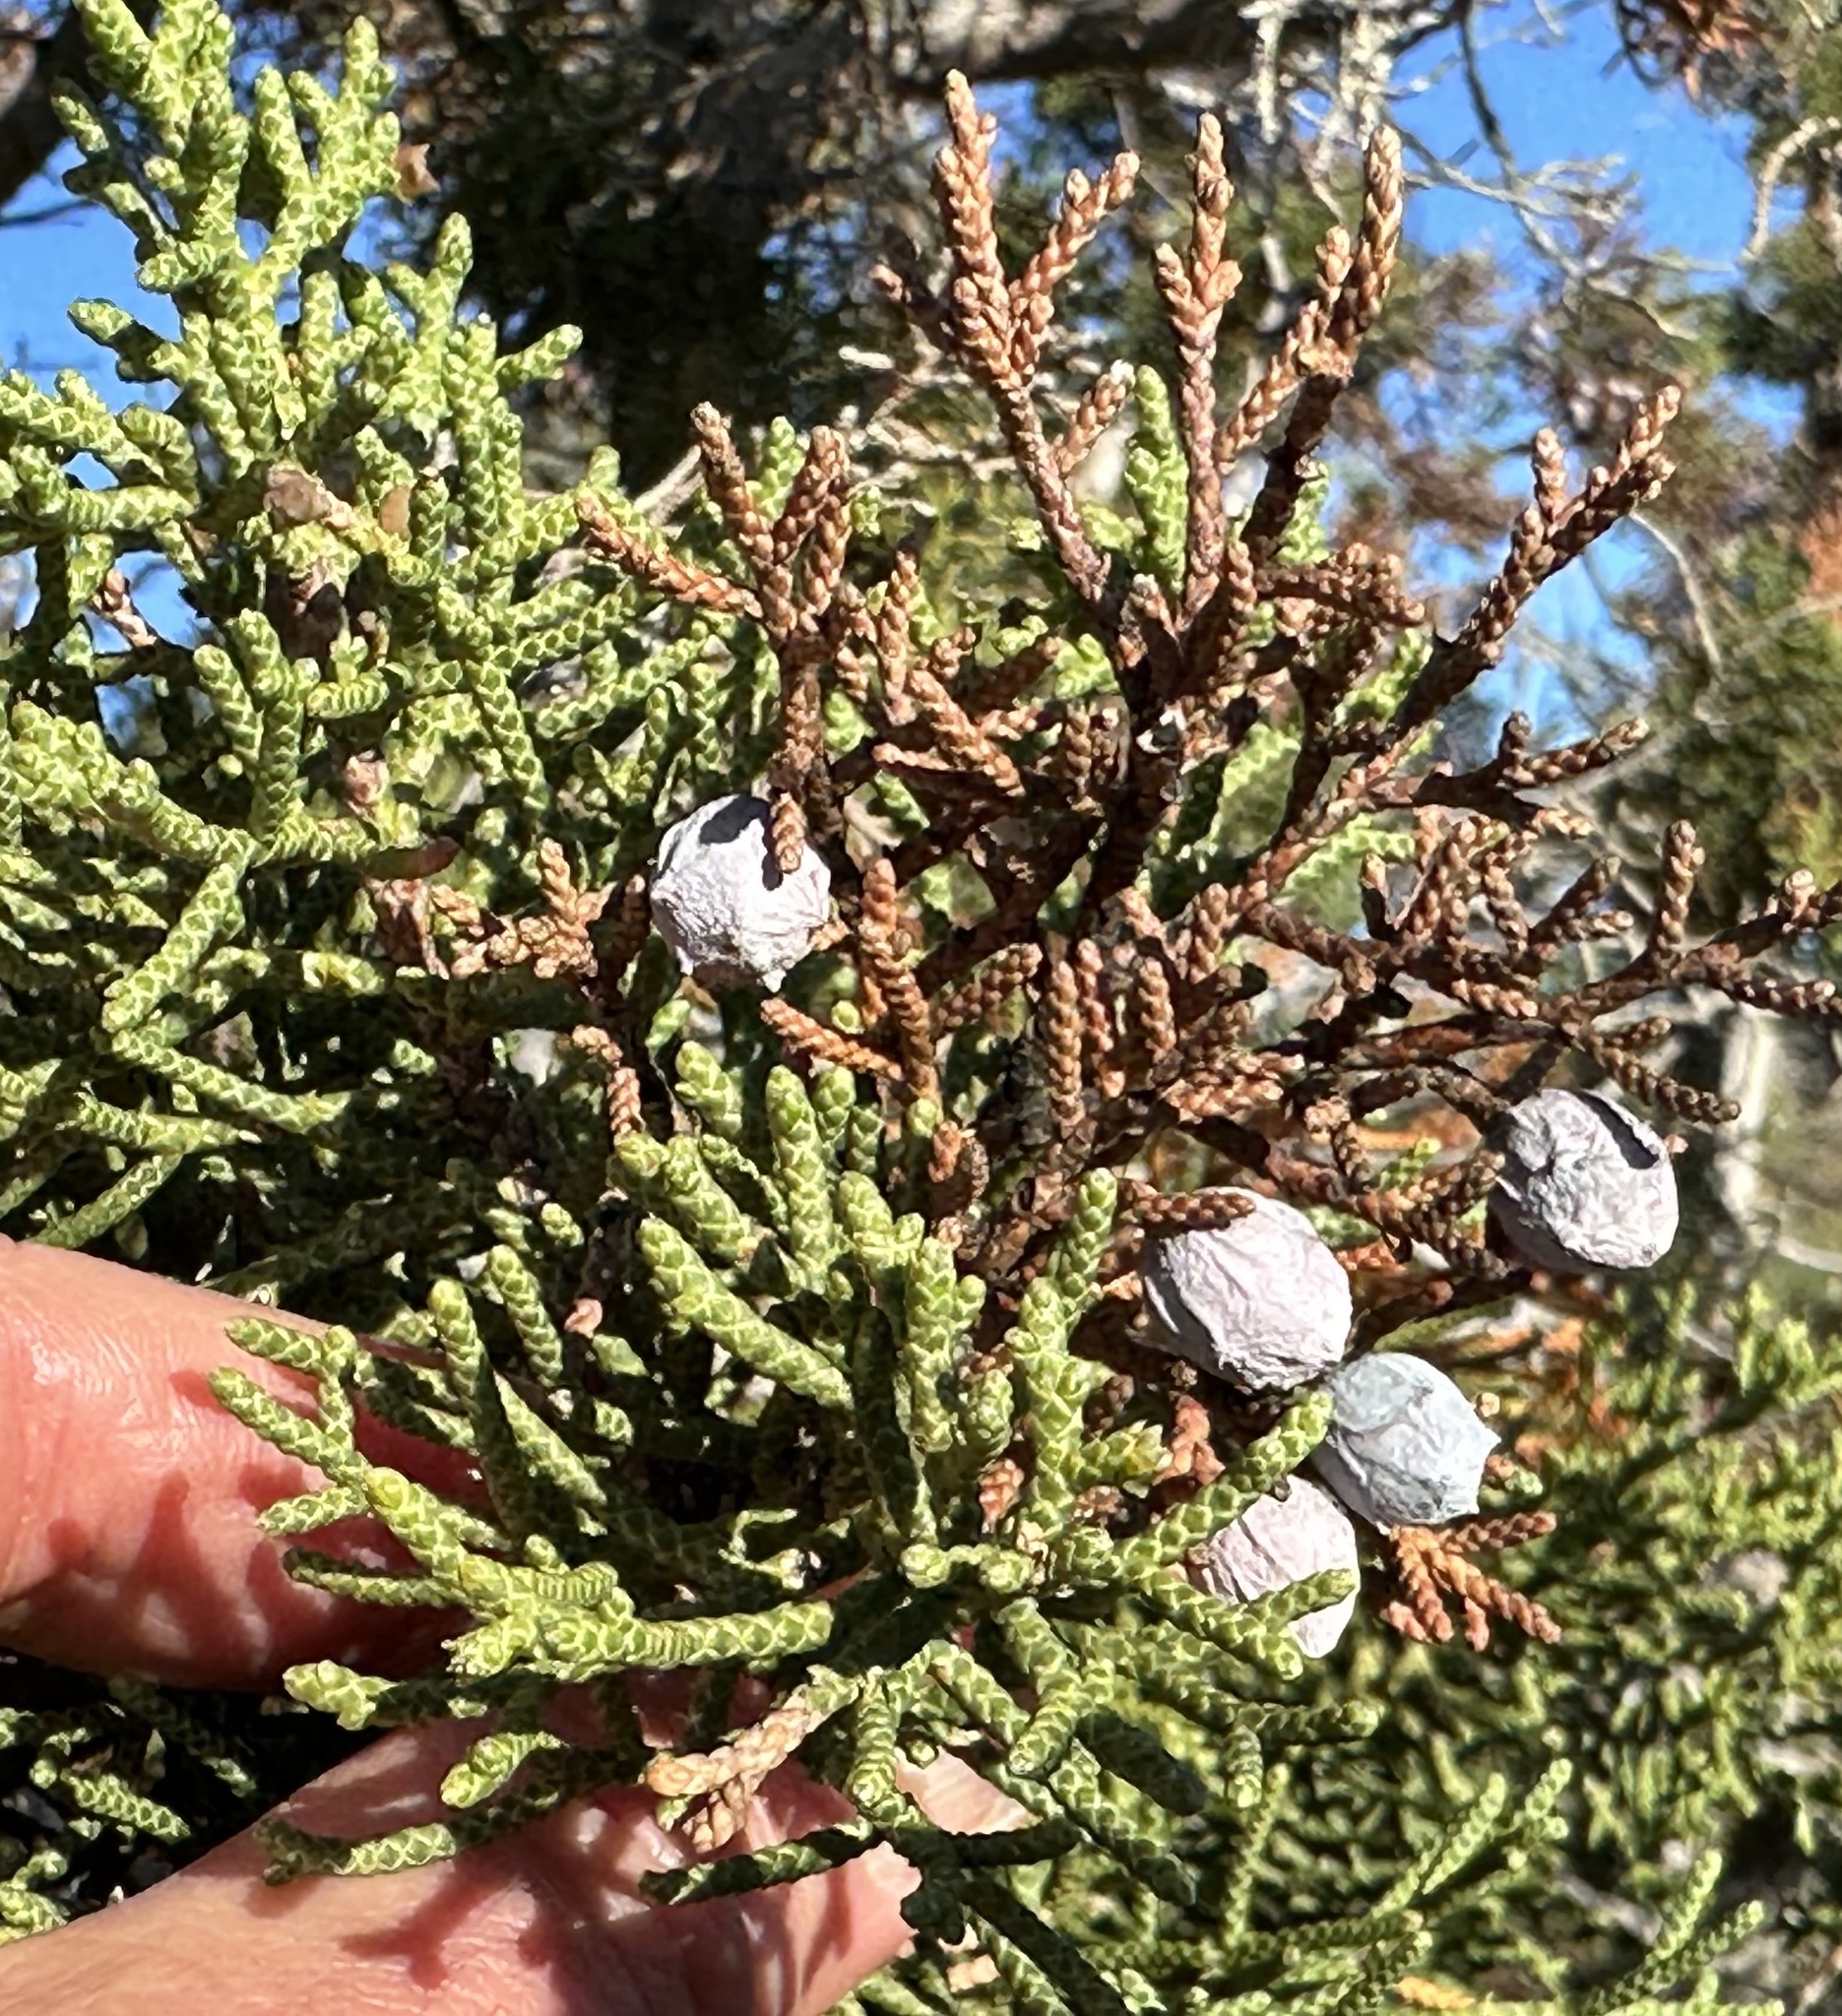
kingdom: Plantae
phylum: Tracheophyta
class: Pinopsida
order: Pinales
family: Cupressaceae
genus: Juniperus
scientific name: Juniperus californica
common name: California juniper
